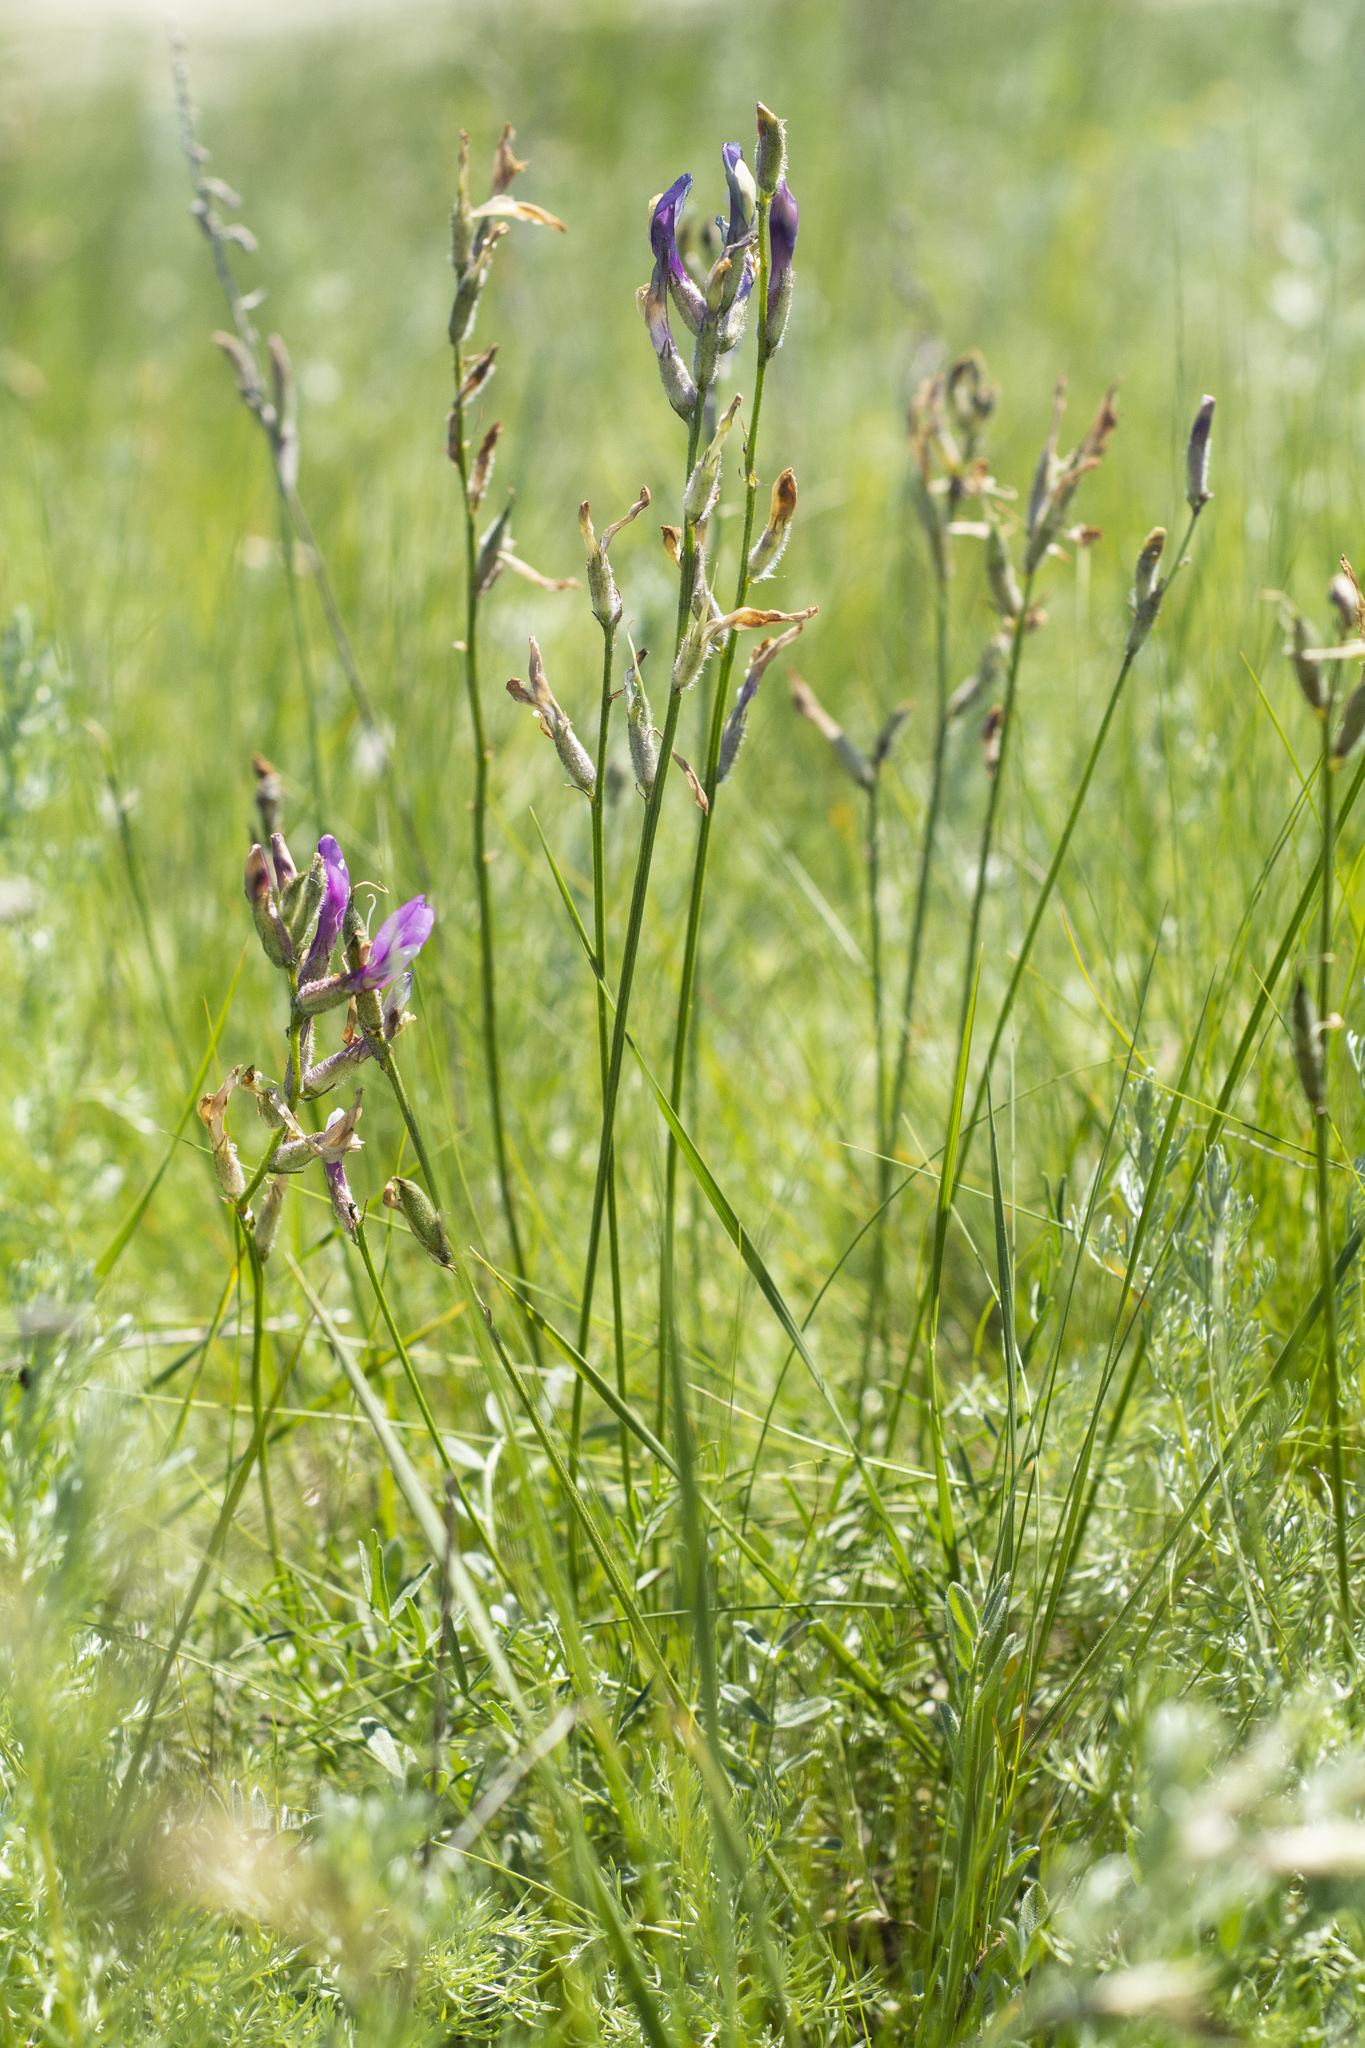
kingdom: Plantae
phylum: Tracheophyta
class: Magnoliopsida
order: Fabales
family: Fabaceae
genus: Astragalus
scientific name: Astragalus macropus
